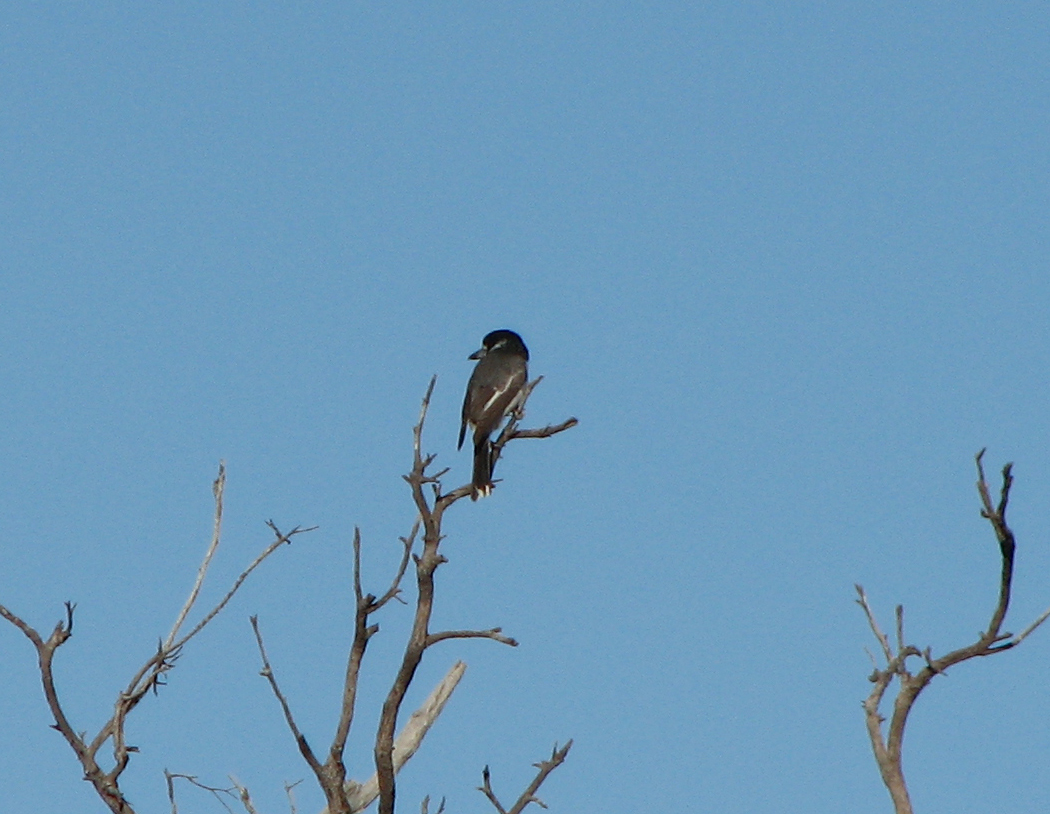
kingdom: Animalia
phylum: Chordata
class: Aves
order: Passeriformes
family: Cracticidae
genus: Cracticus
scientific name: Cracticus torquatus
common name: Grey butcherbird
